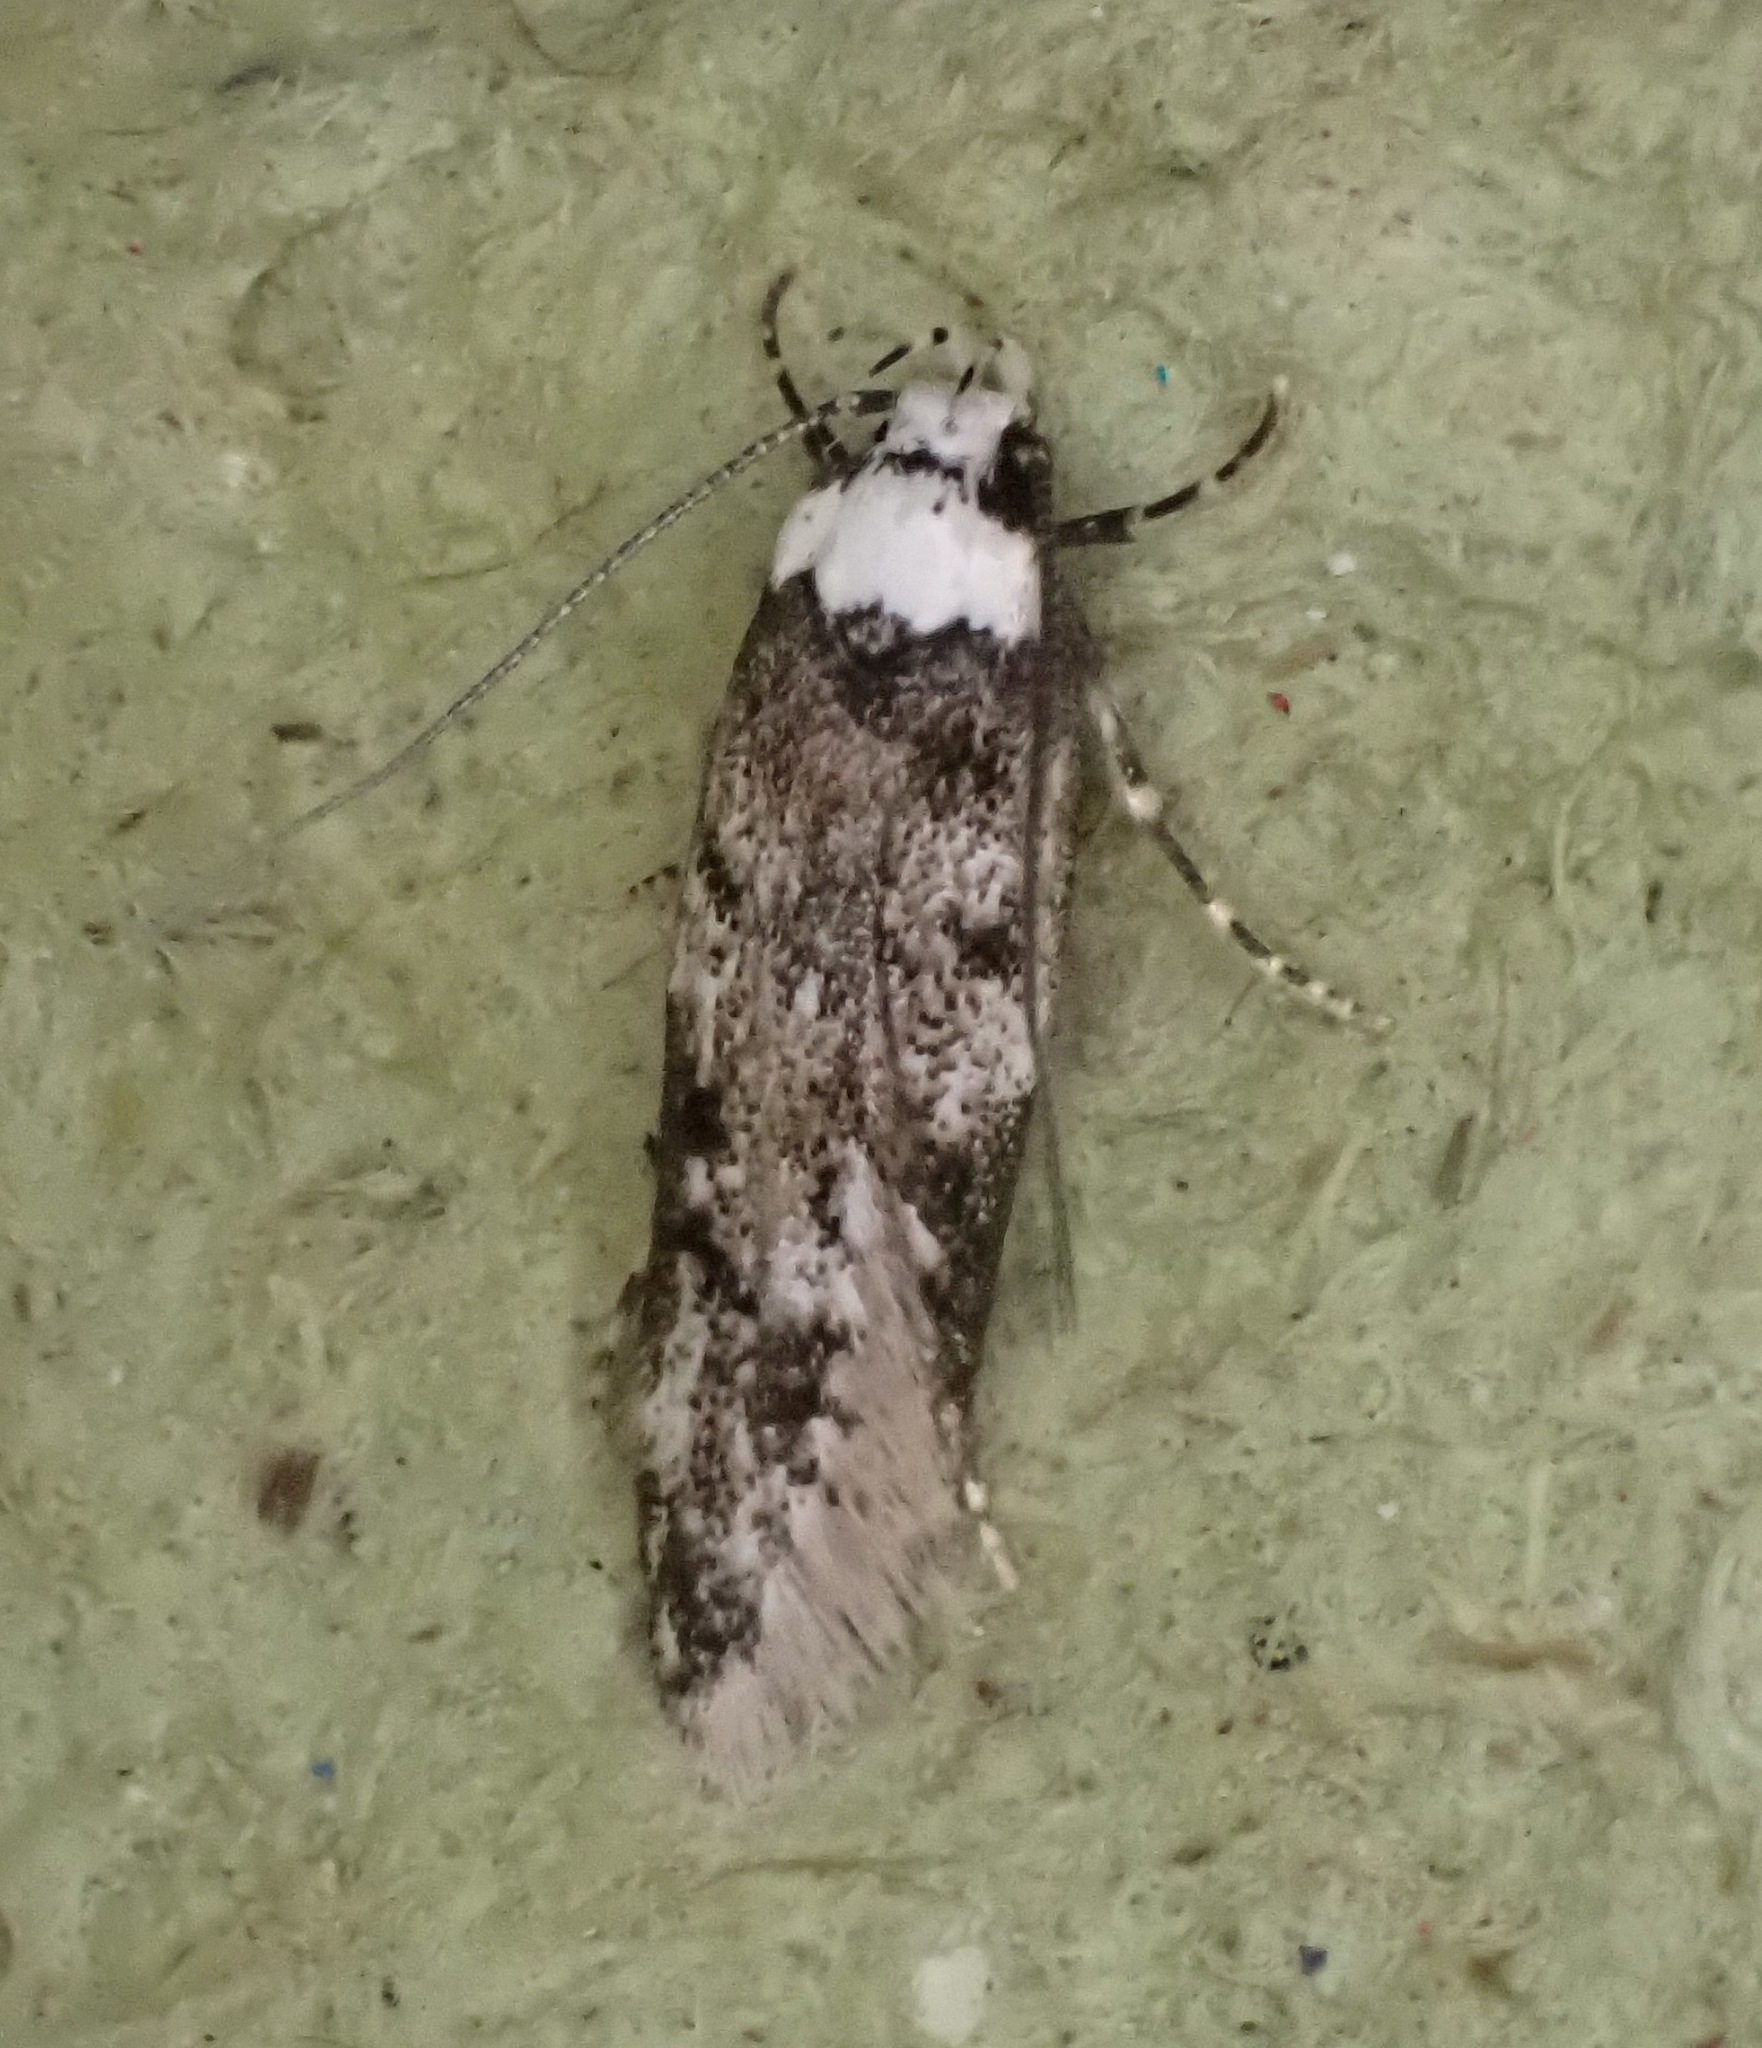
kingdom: Animalia
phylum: Arthropoda
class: Insecta
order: Lepidoptera
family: Oecophoridae
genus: Endrosis
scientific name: Endrosis sarcitrella
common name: White-shouldered house moth
